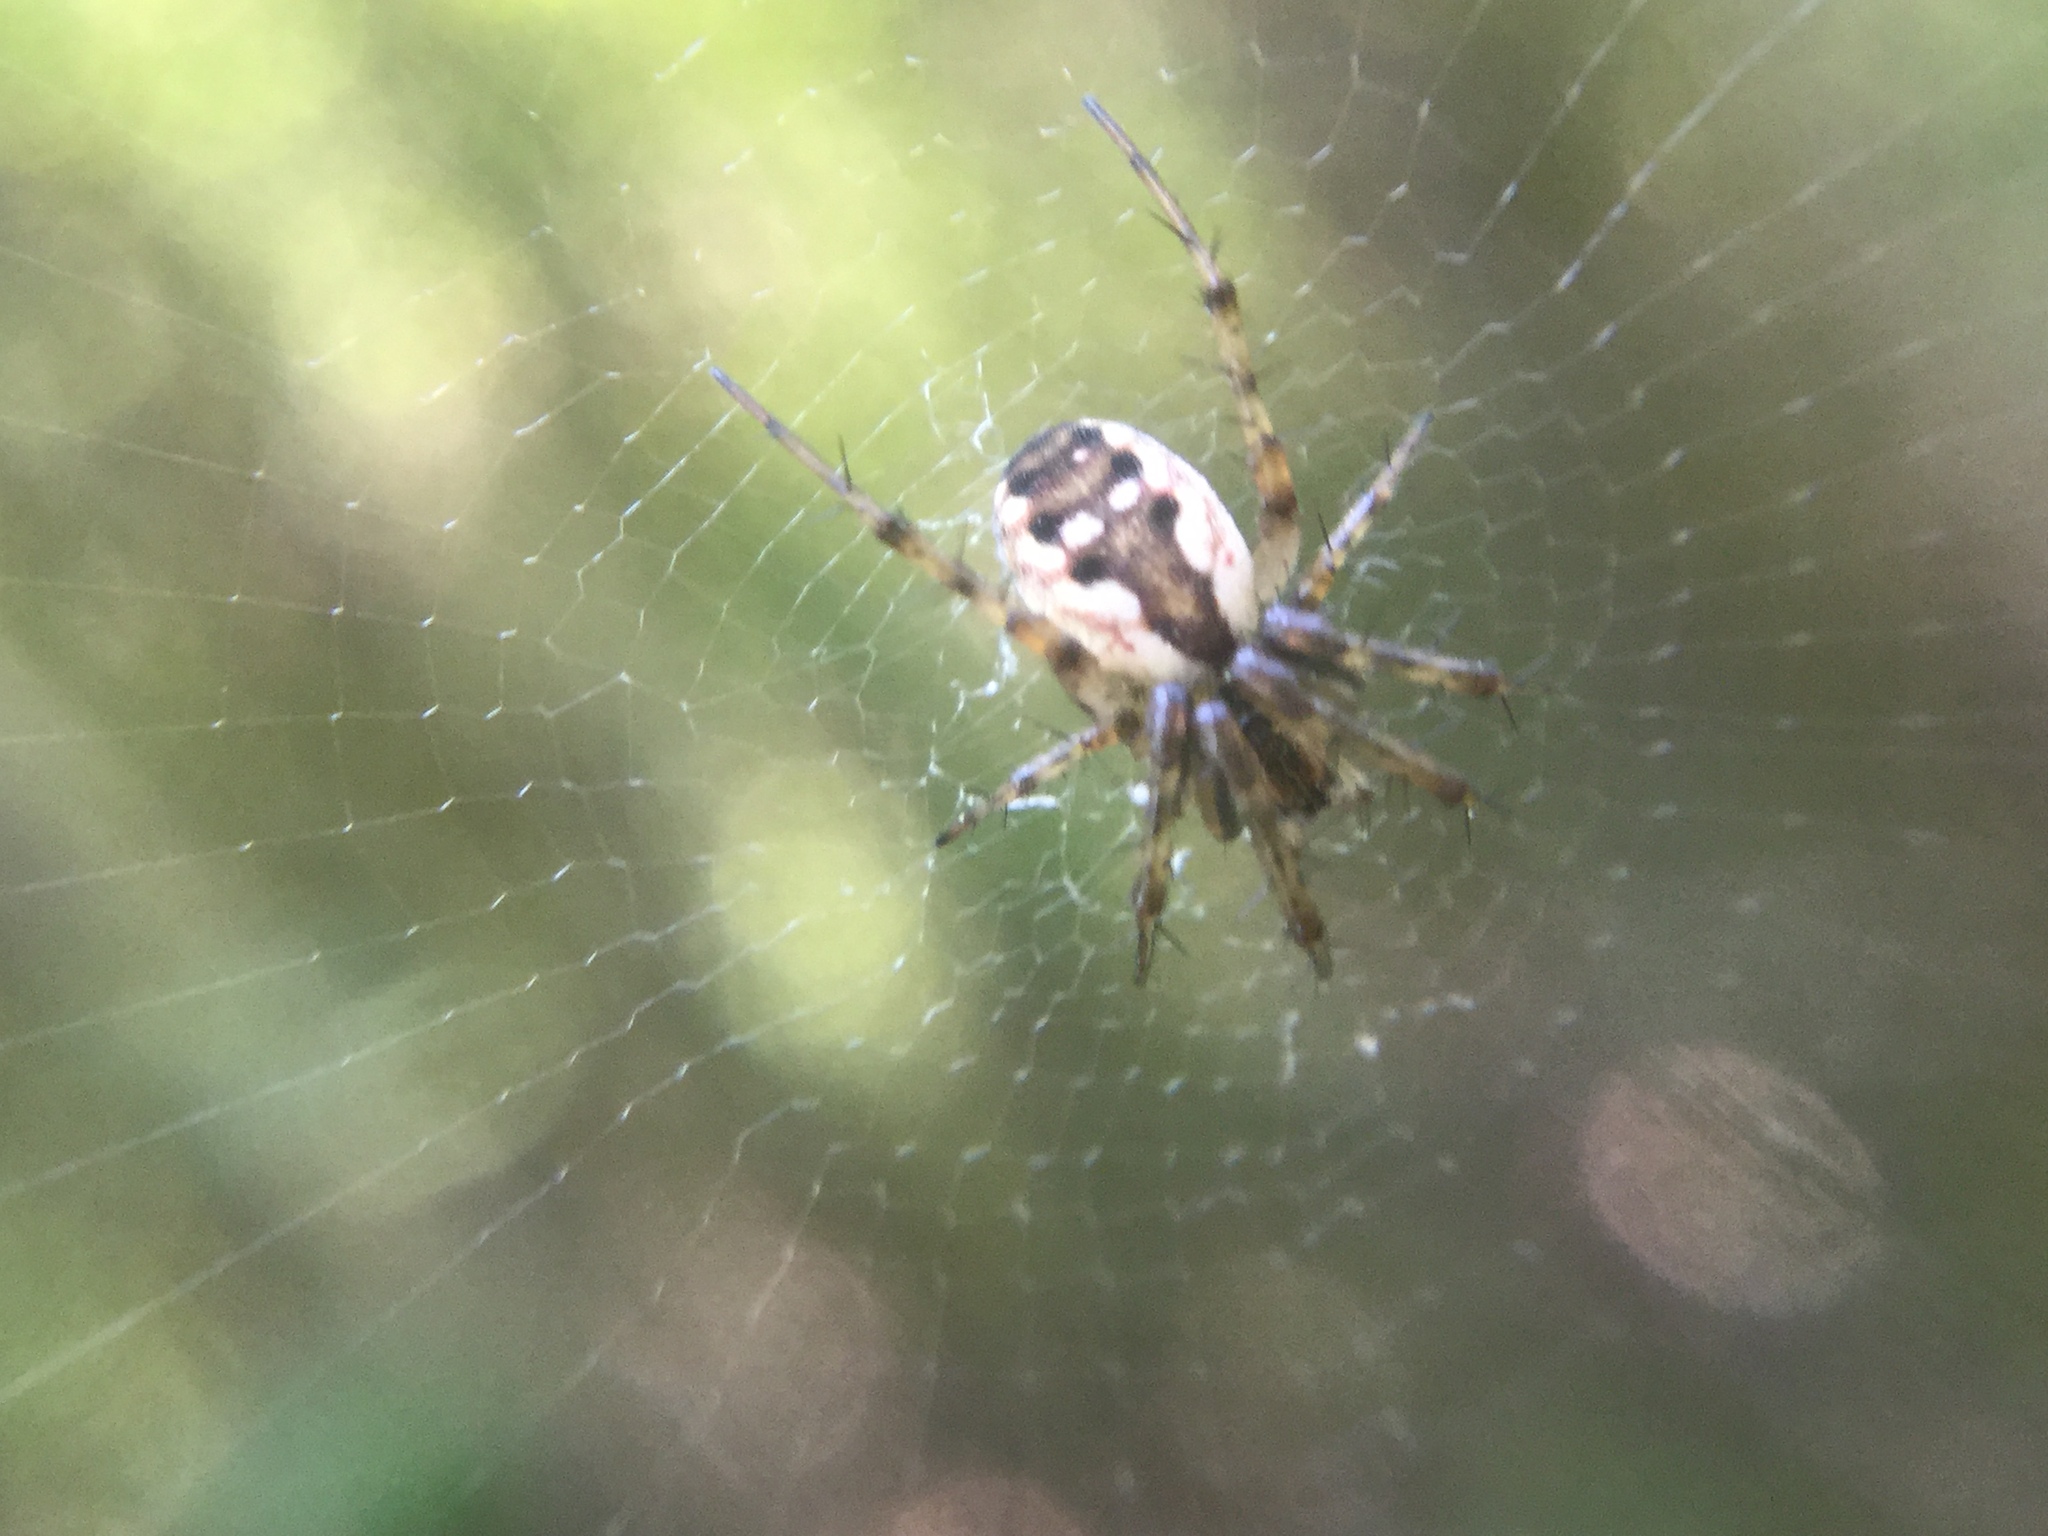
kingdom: Animalia
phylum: Arthropoda
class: Arachnida
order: Araneae
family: Araneidae
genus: Mangora
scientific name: Mangora placida
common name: Tuft-legged orbweaver
